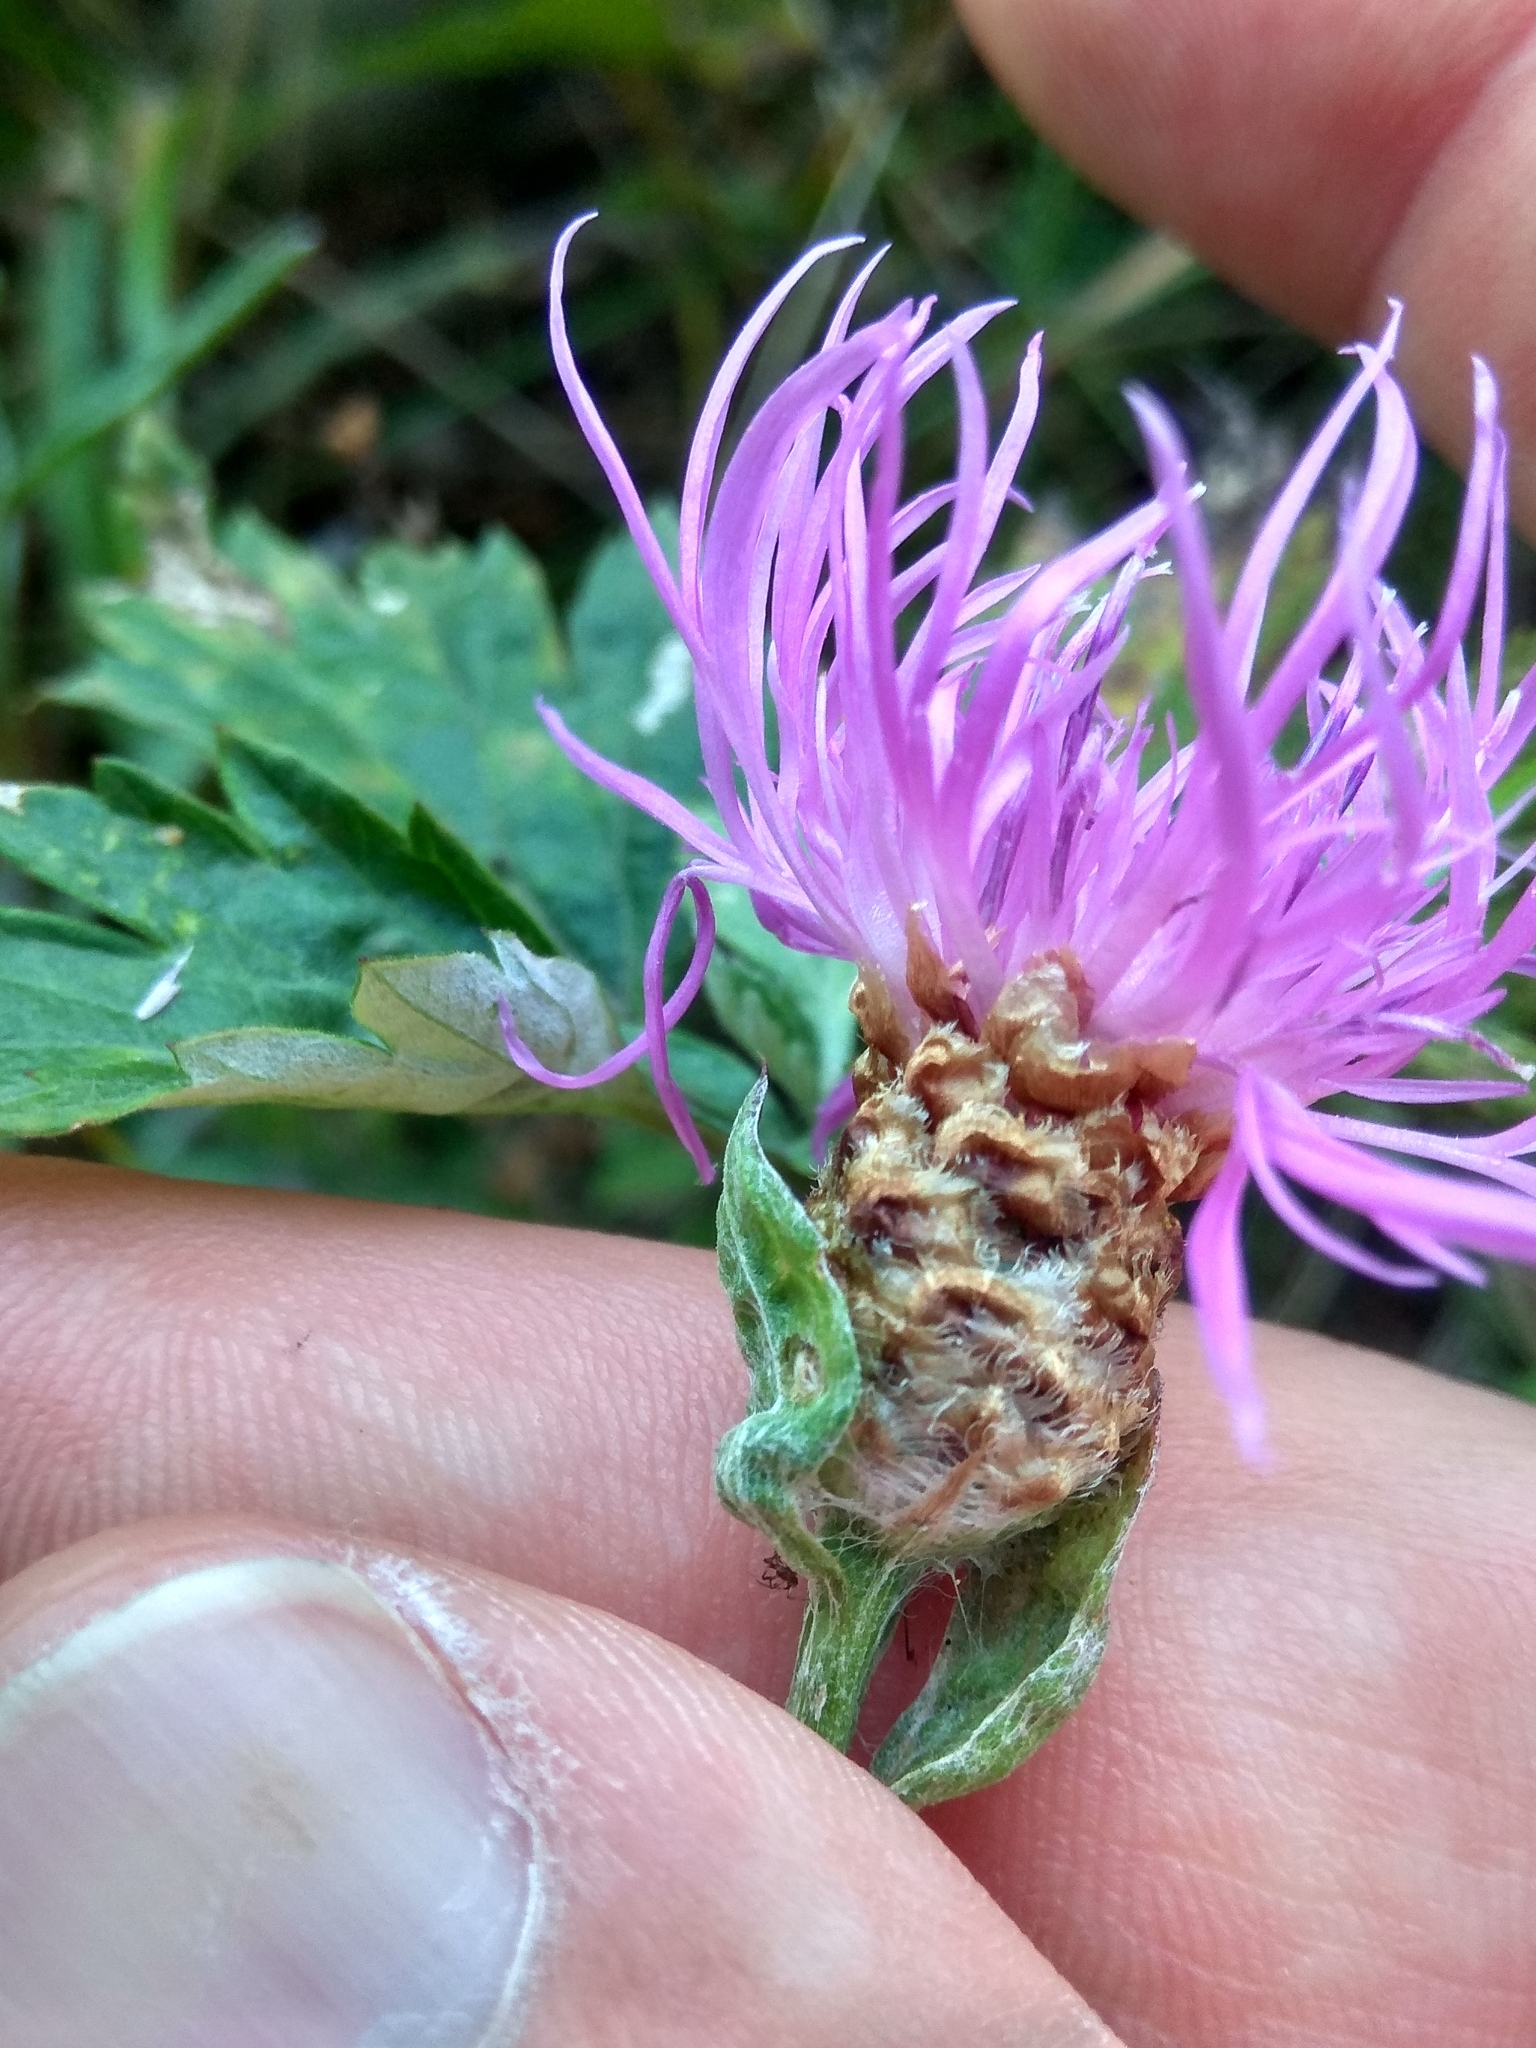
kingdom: Plantae
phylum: Tracheophyta
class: Magnoliopsida
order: Asterales
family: Asteraceae
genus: Centaurea
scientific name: Centaurea jacea
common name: Brown knapweed
